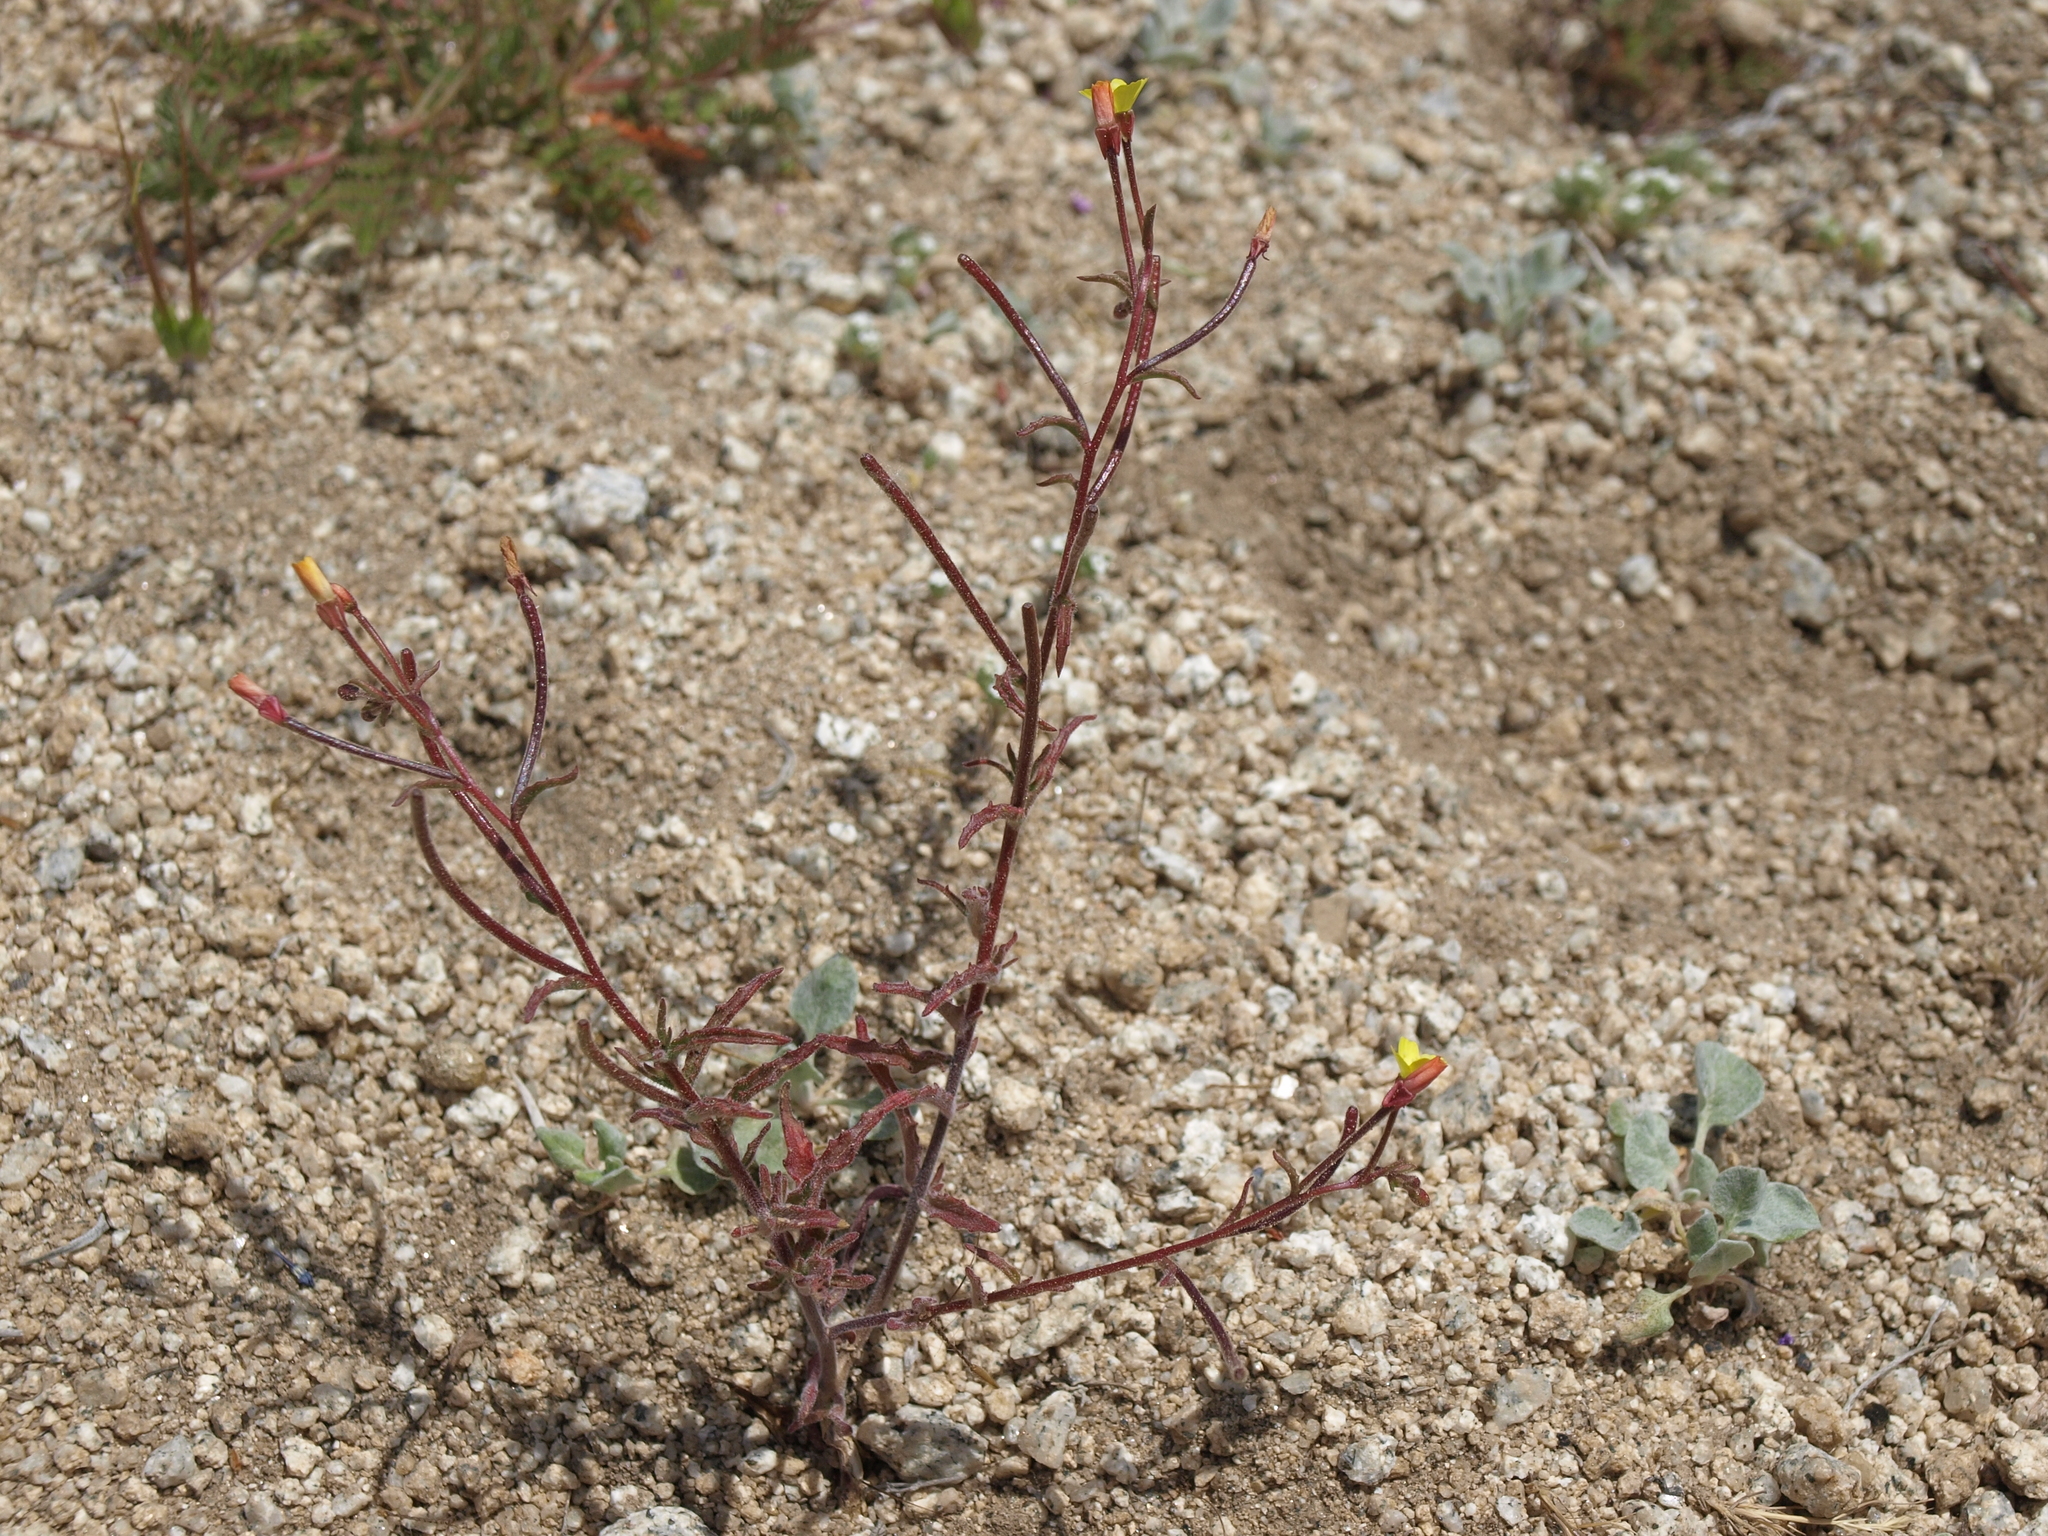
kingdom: Plantae
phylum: Tracheophyta
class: Magnoliopsida
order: Myrtales
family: Onagraceae
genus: Camissonia
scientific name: Camissonia pusilla
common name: Obscure camissonia
